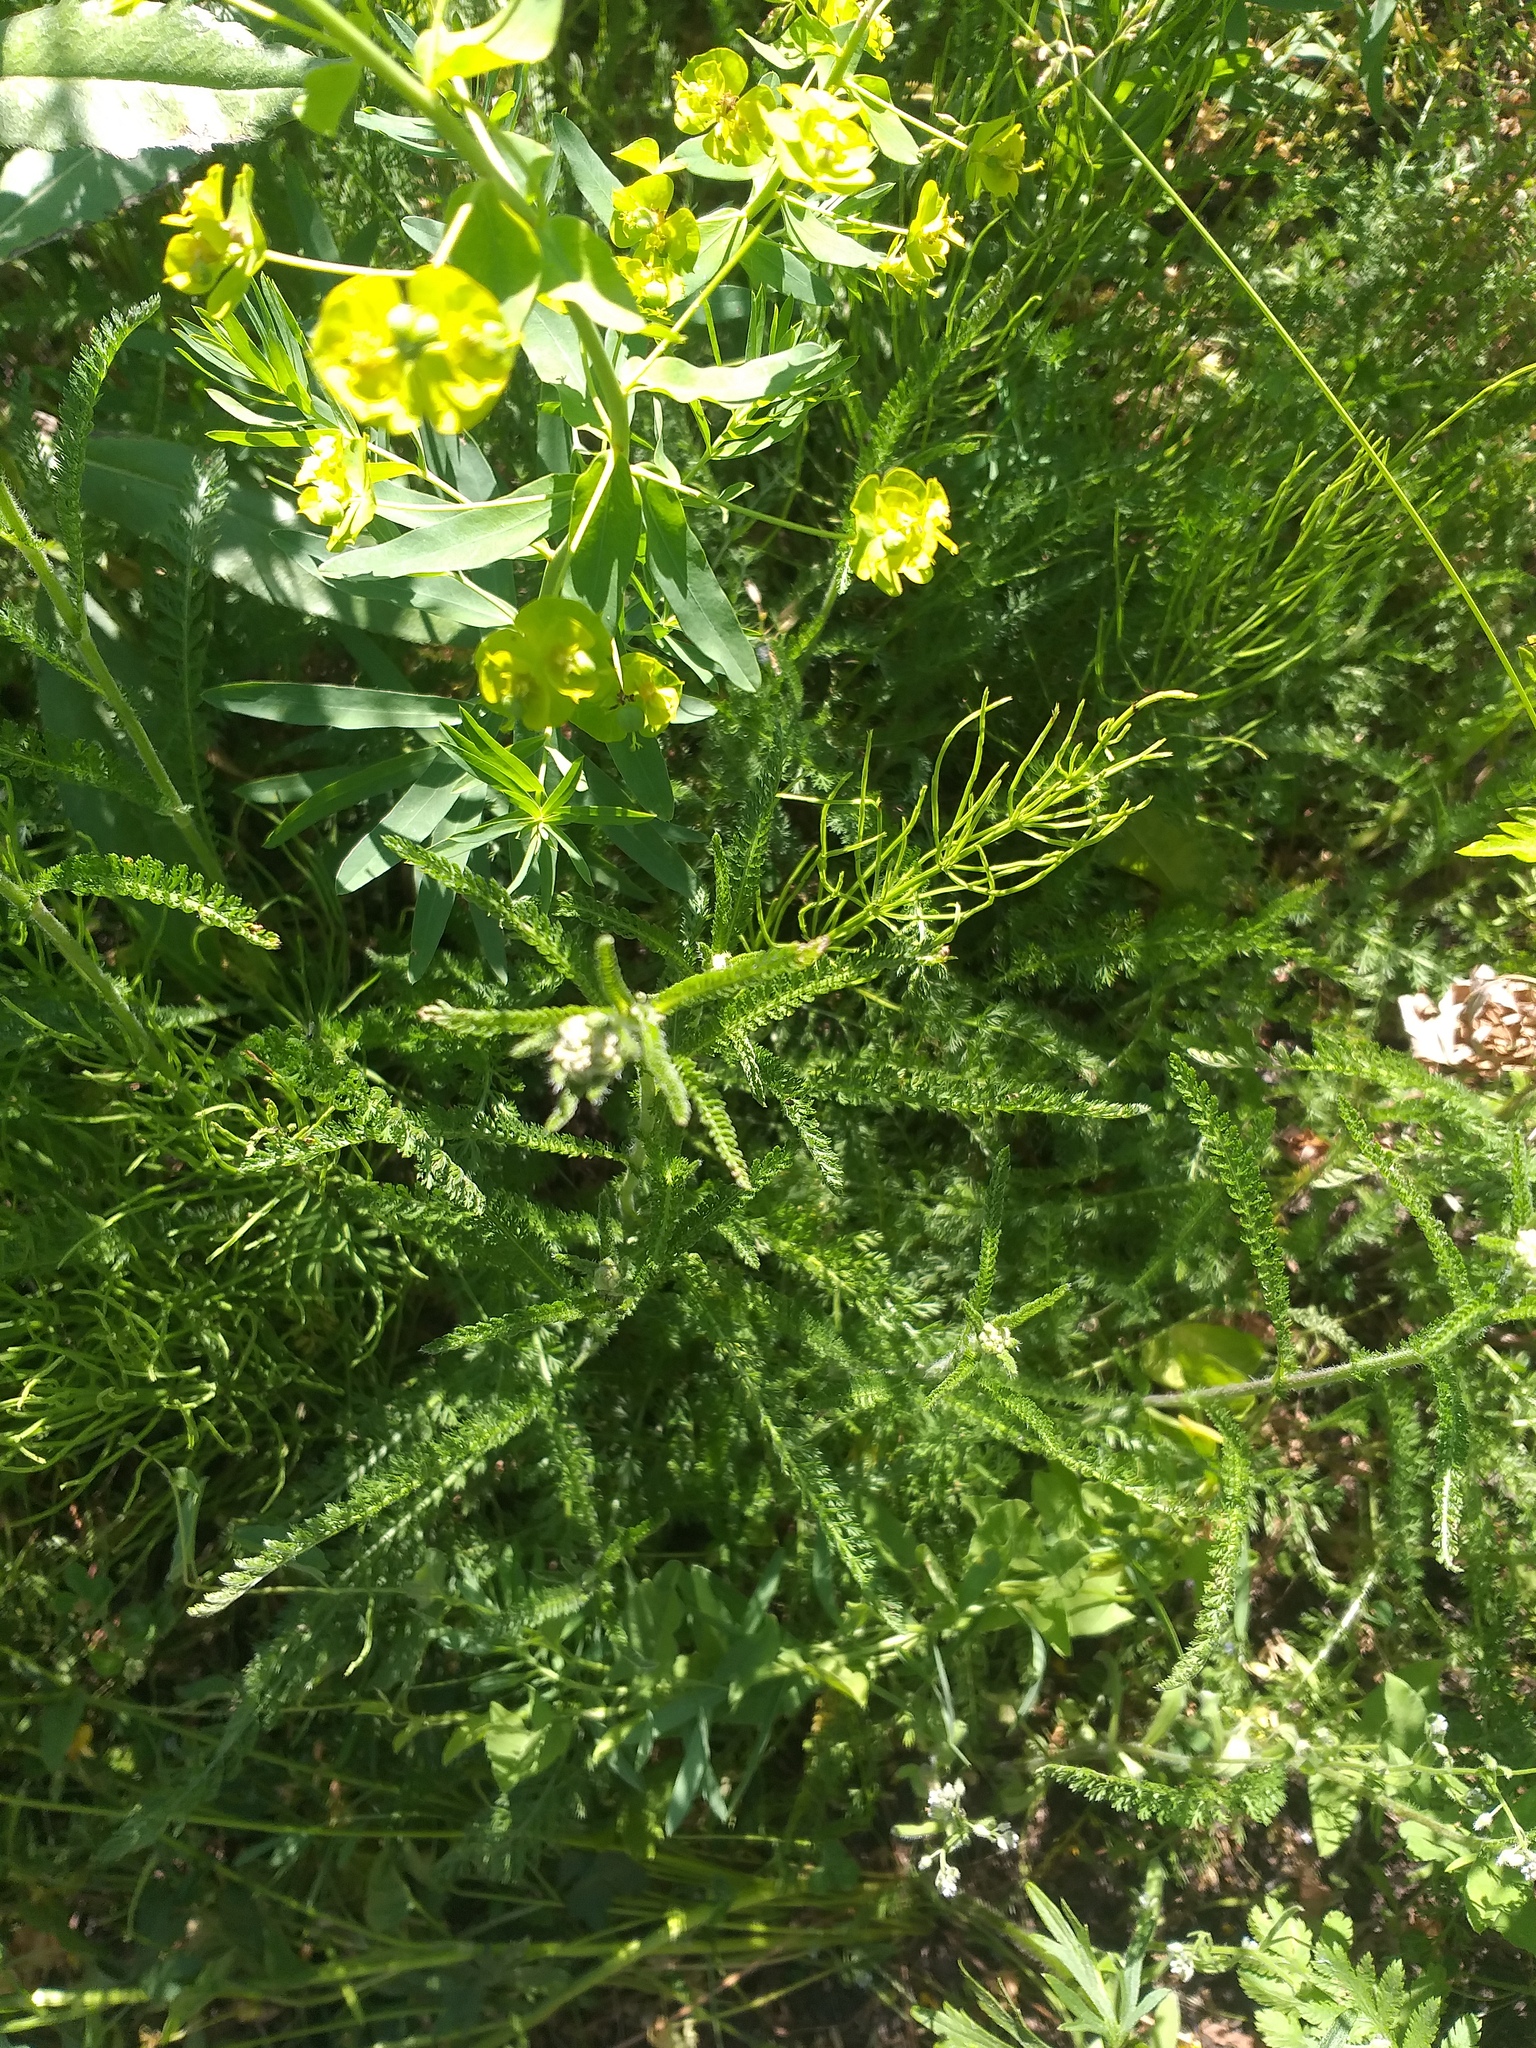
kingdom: Plantae
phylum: Tracheophyta
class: Magnoliopsida
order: Asterales
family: Asteraceae
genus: Achillea
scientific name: Achillea millefolium
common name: Yarrow
